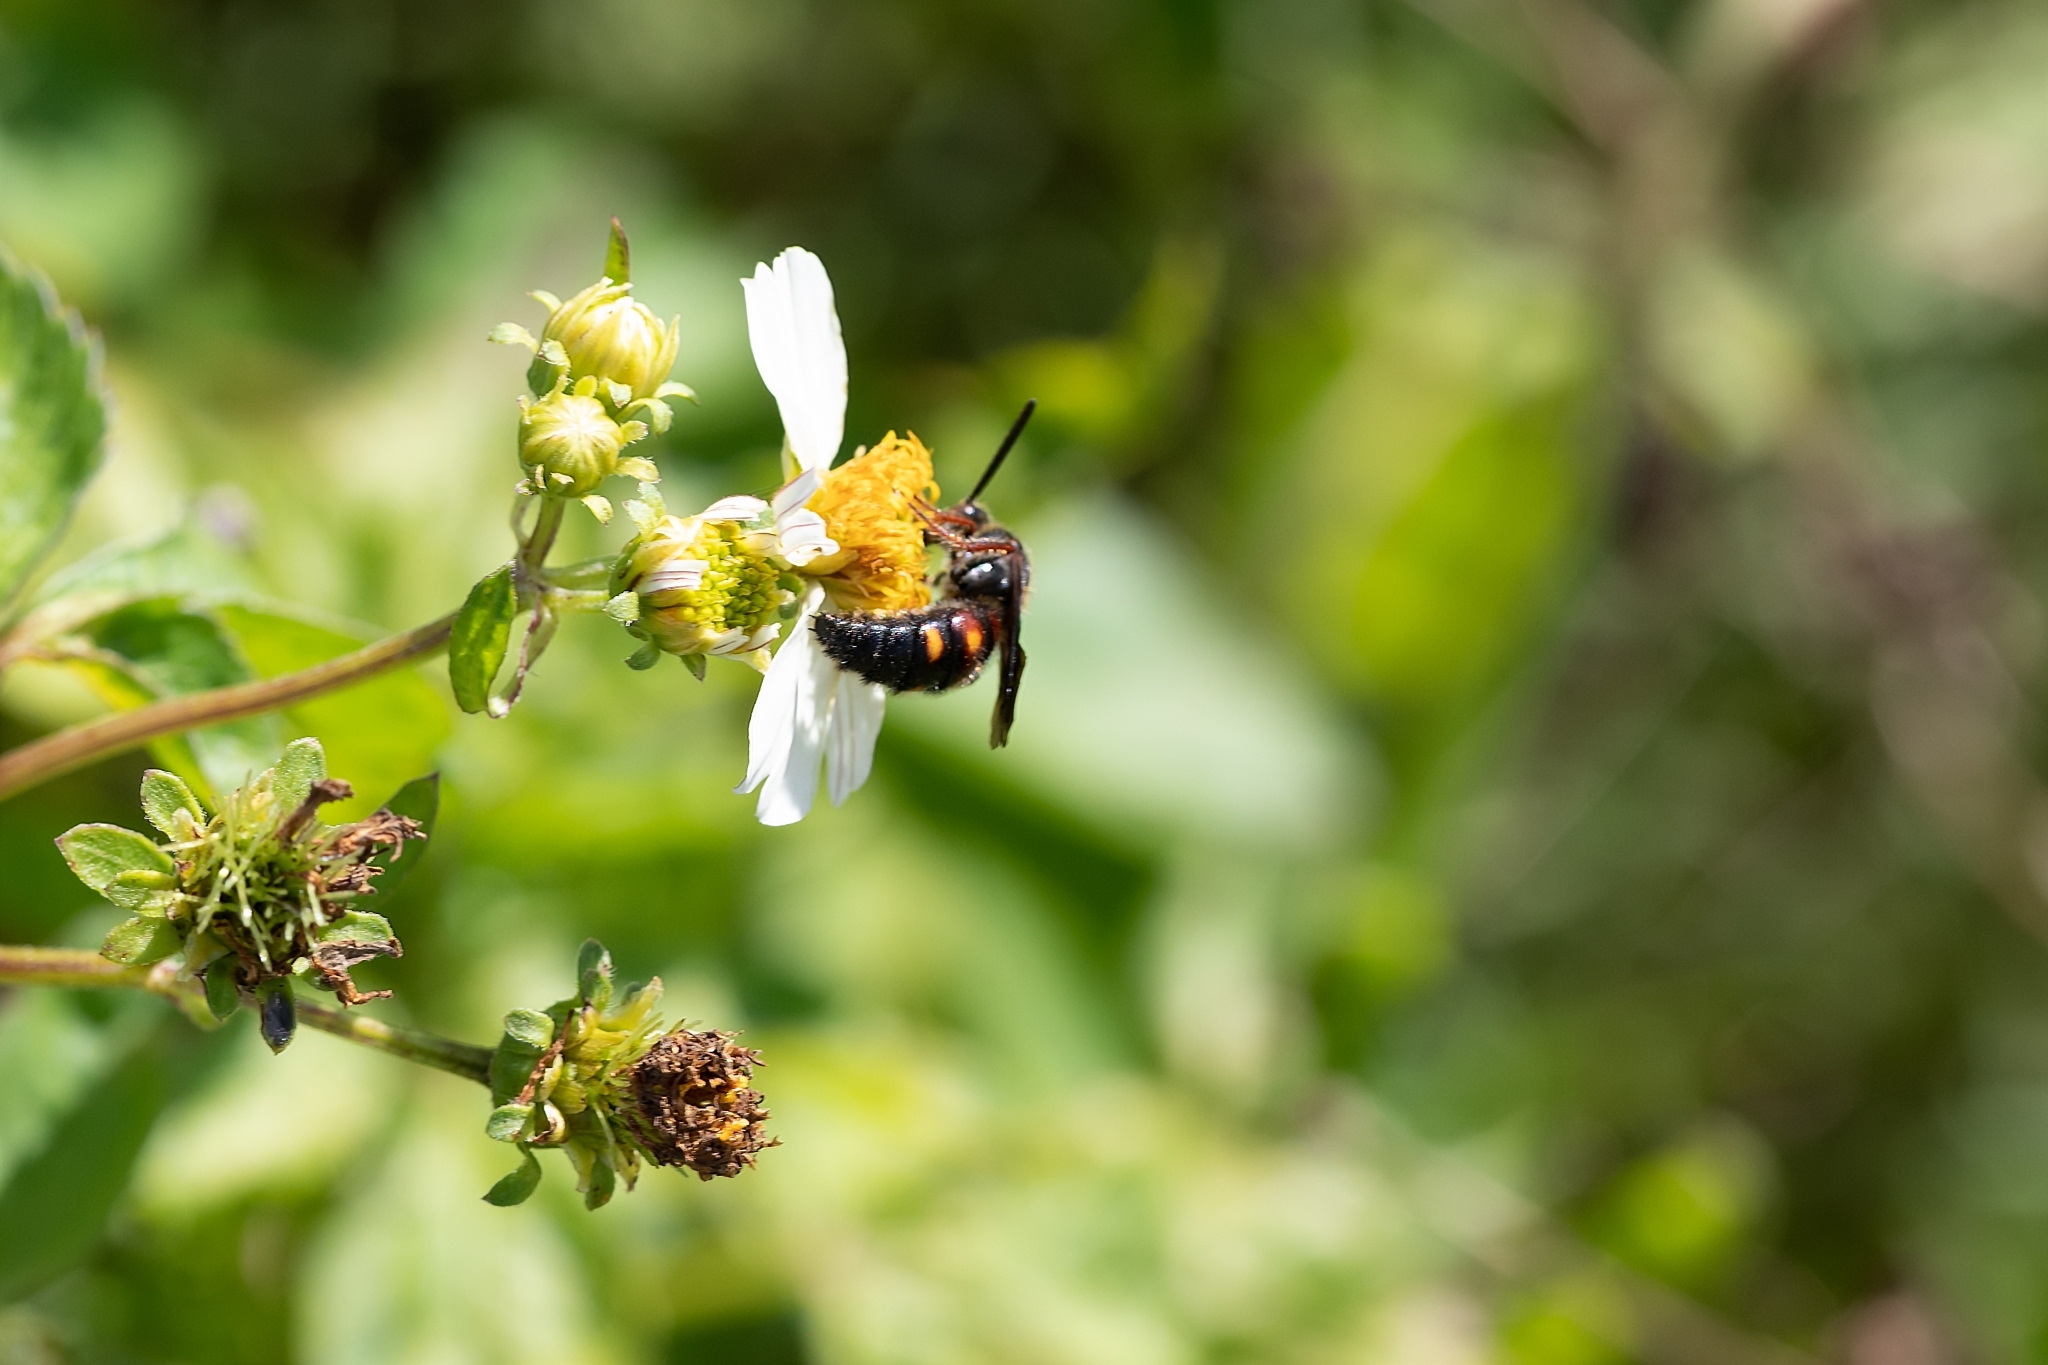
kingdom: Animalia
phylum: Arthropoda
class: Insecta
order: Hymenoptera
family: Scoliidae
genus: Scolia
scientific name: Scolia nobilitata
